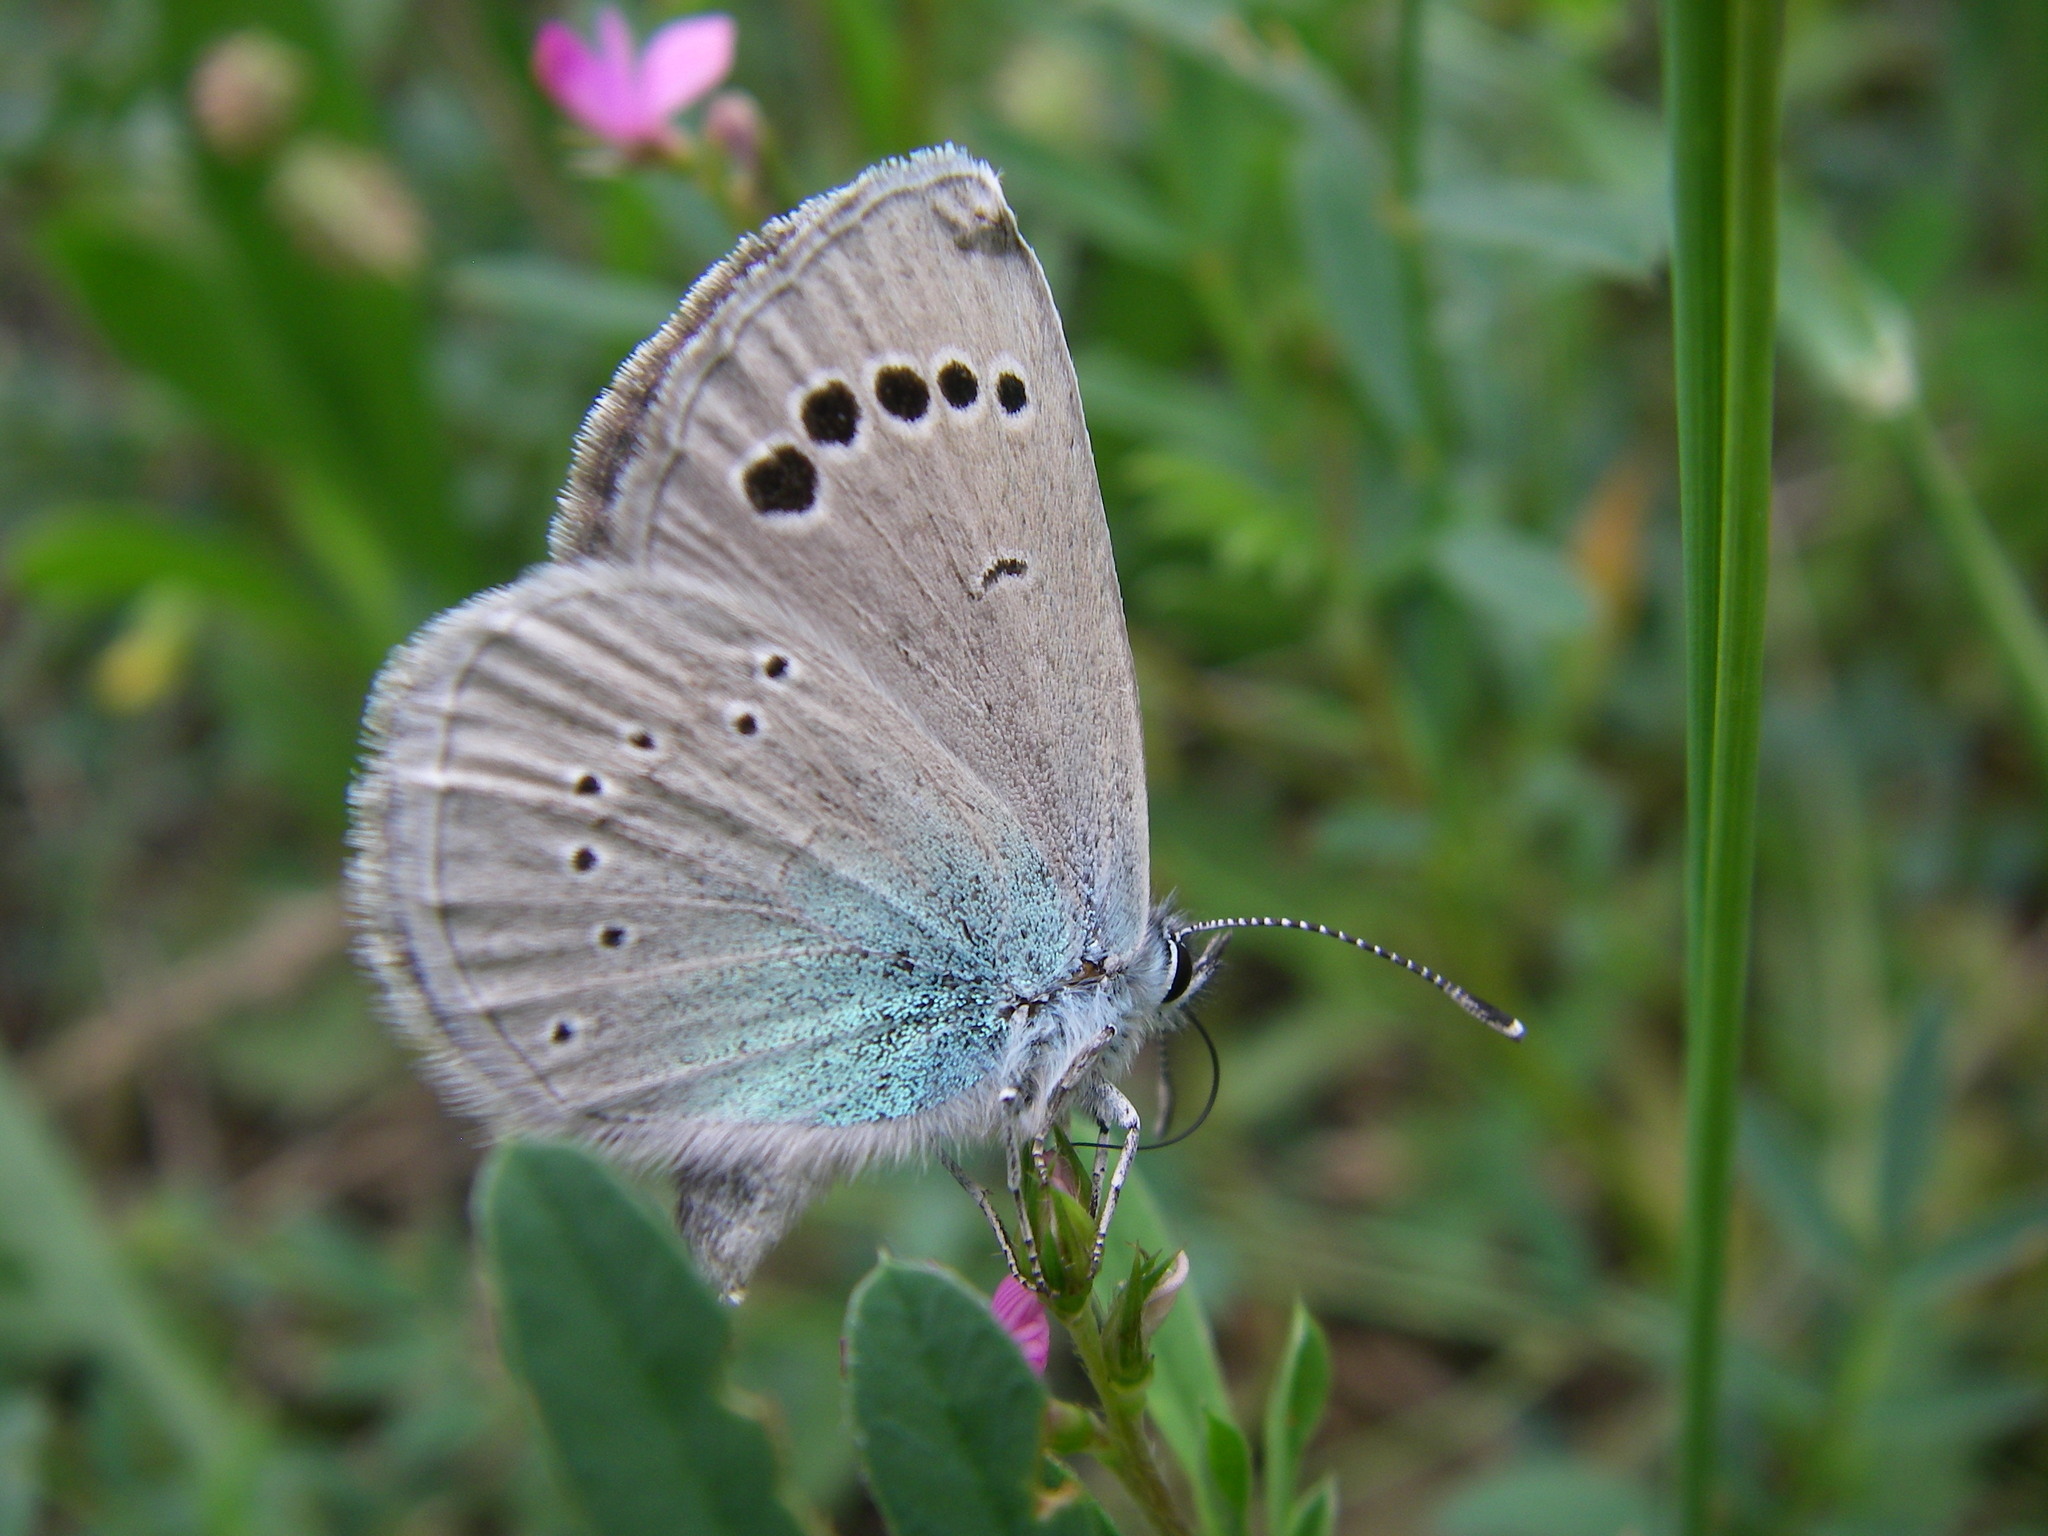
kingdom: Animalia
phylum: Arthropoda
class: Insecta
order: Lepidoptera
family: Lycaenidae
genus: Glaucopsyche
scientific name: Glaucopsyche alexis
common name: Green-underside blue
